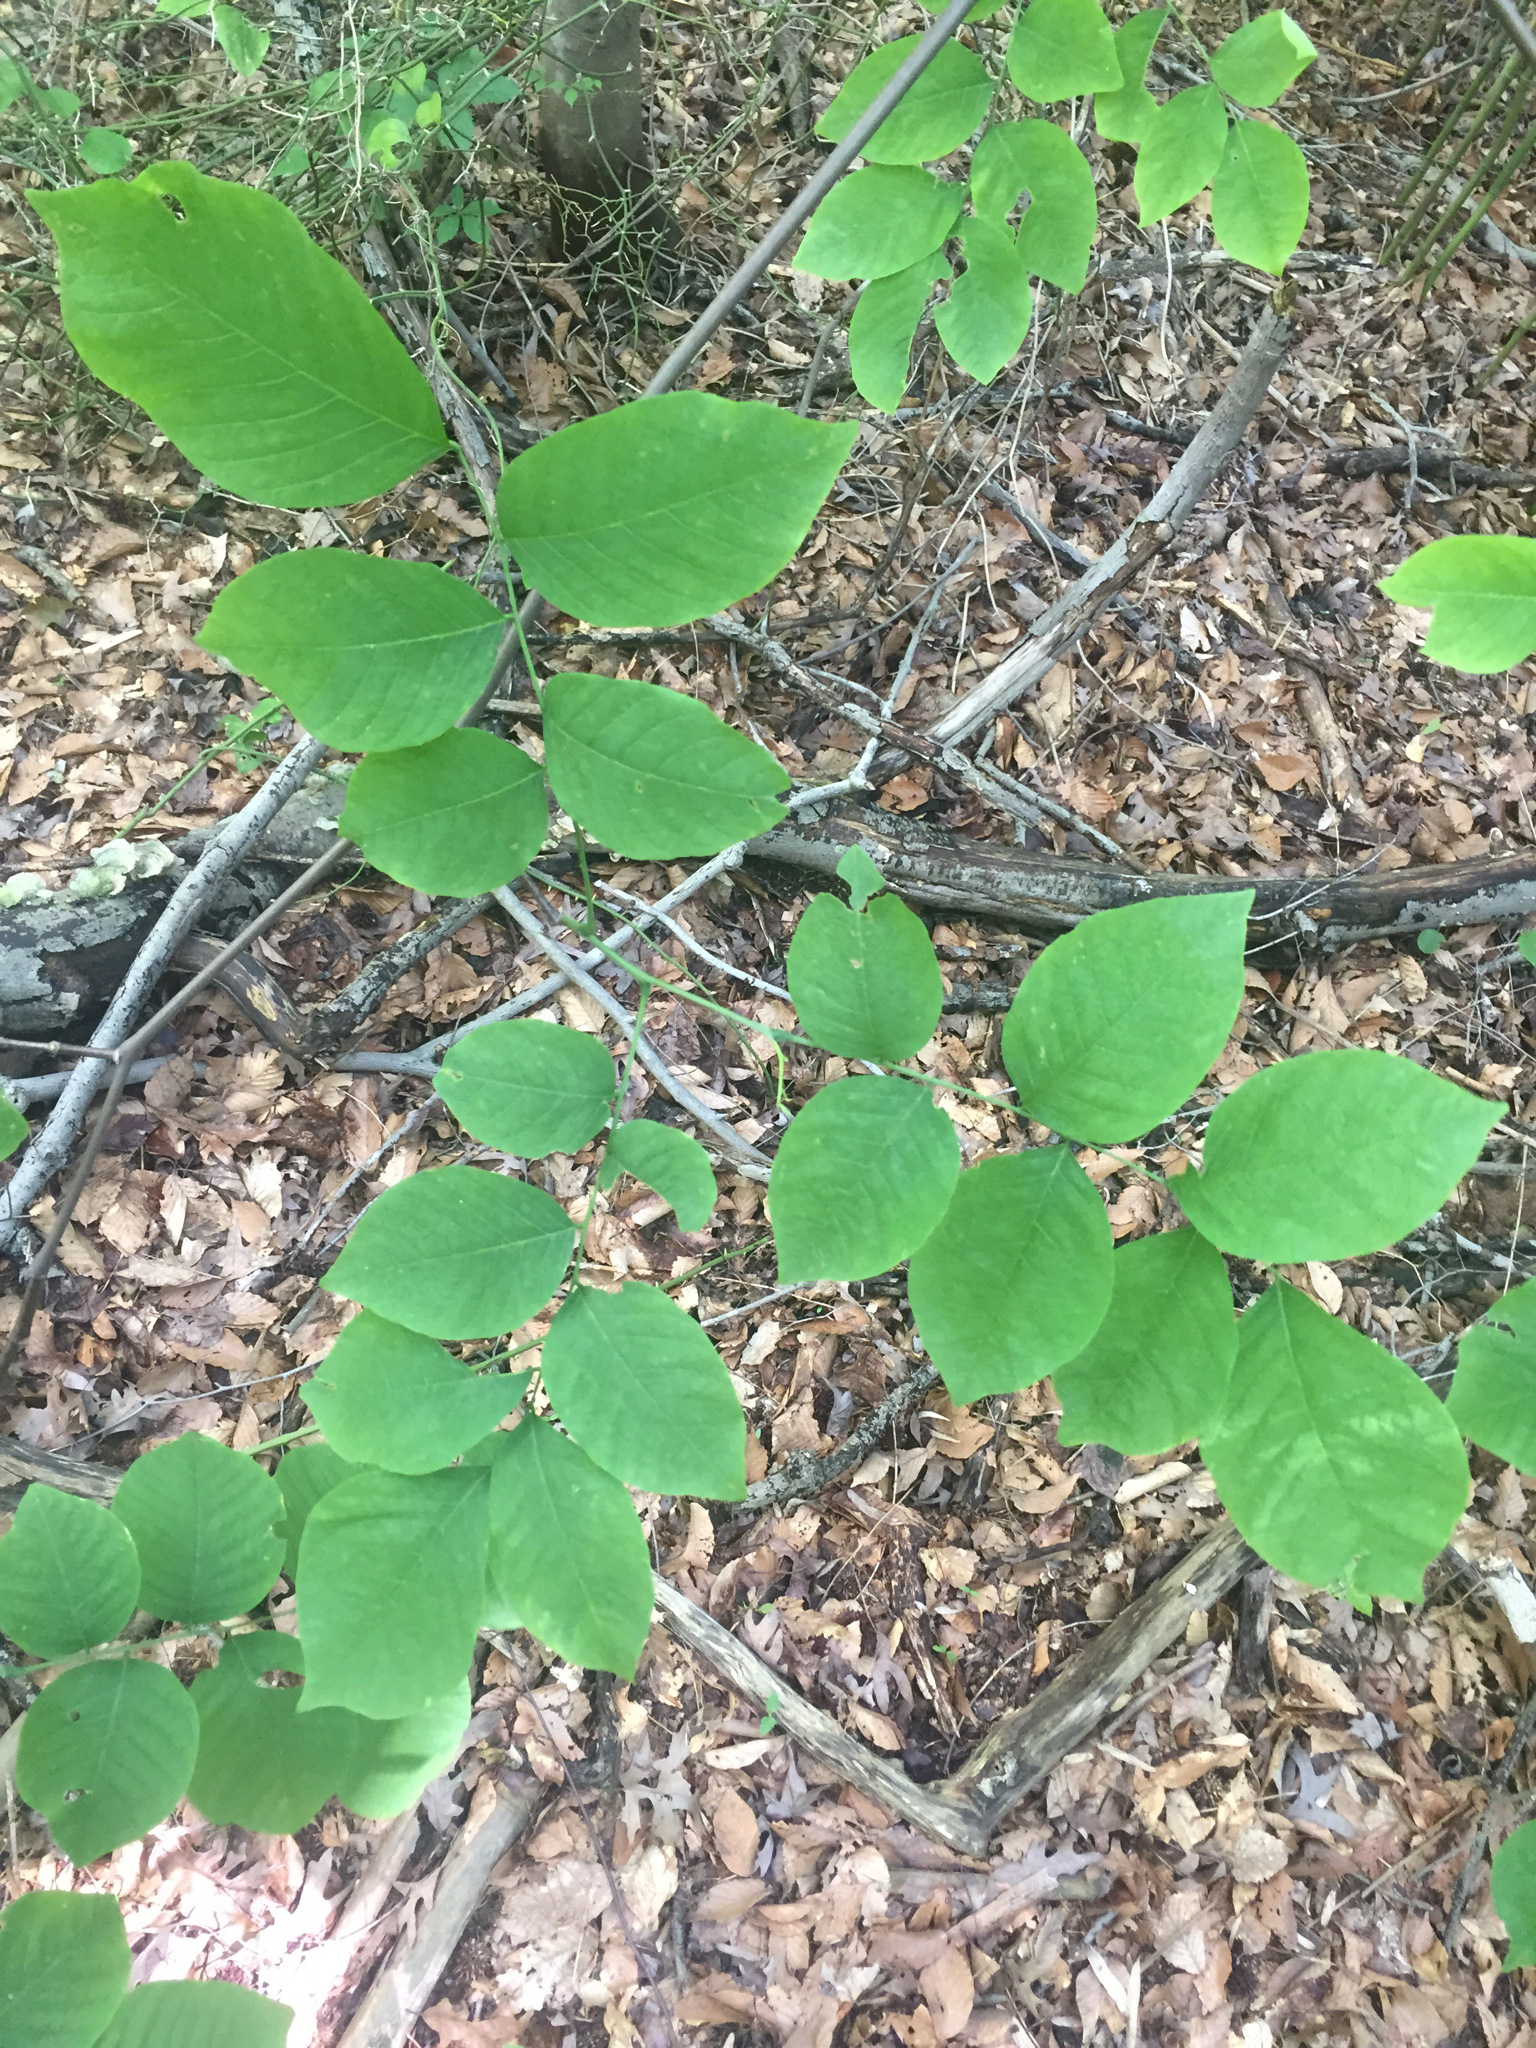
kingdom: Plantae
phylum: Tracheophyta
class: Magnoliopsida
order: Fabales
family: Fabaceae
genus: Cladrastis
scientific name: Cladrastis kentukea
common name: Kentucky yellow-wood
